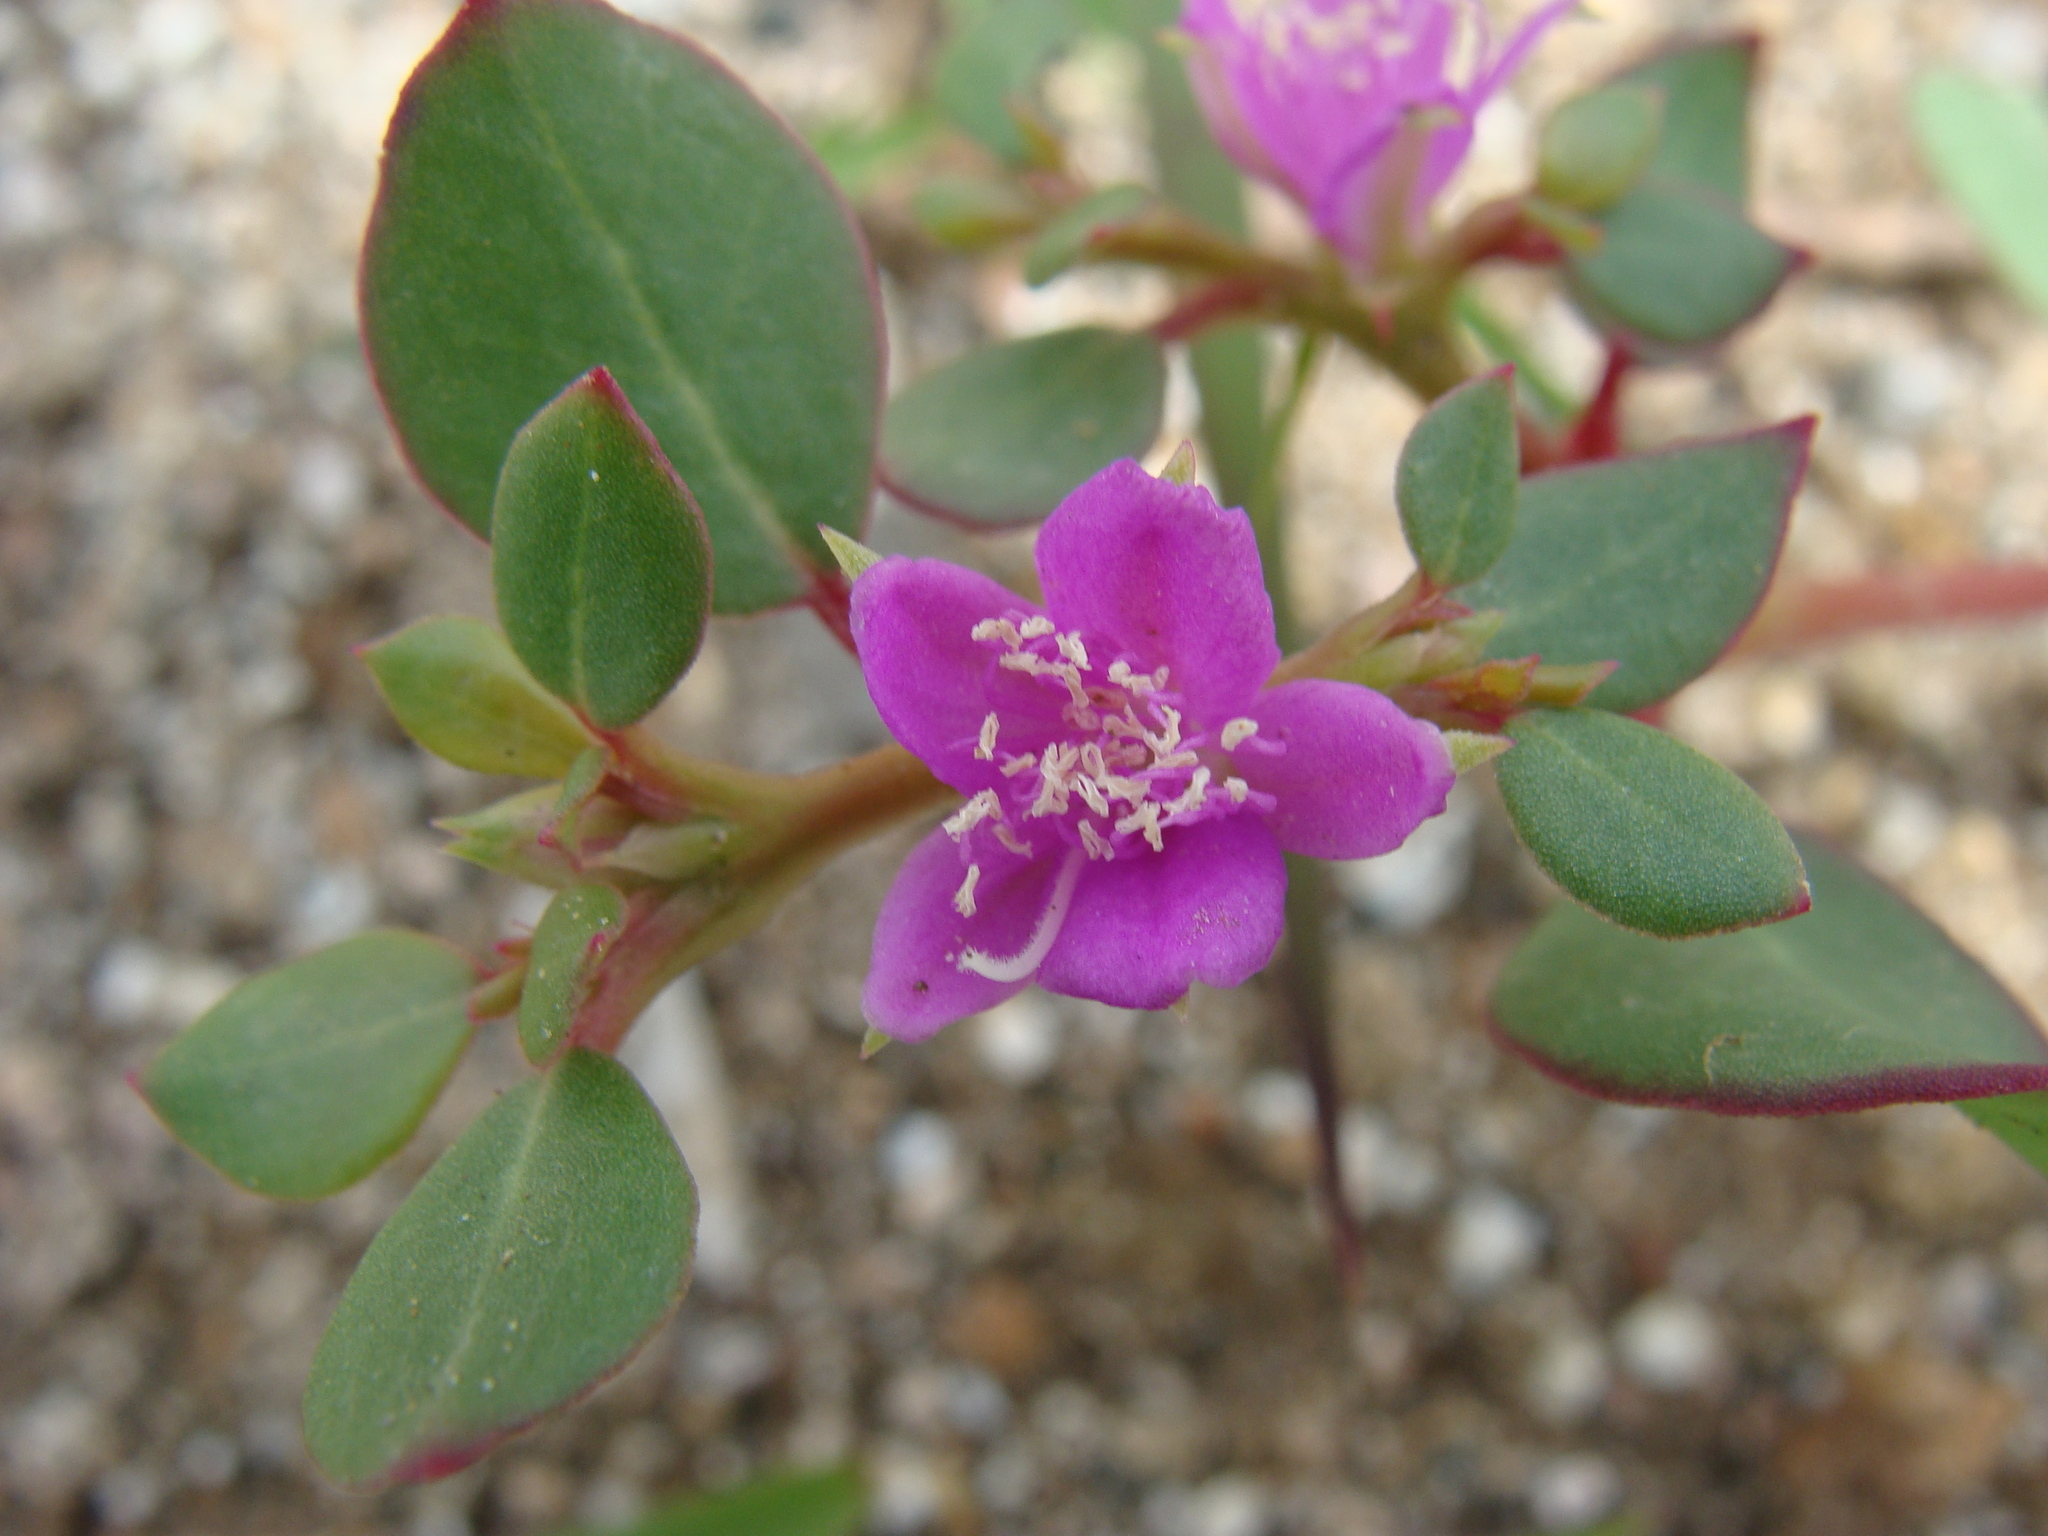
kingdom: Plantae
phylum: Tracheophyta
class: Magnoliopsida
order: Caryophyllales
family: Aizoaceae
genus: Trianthema
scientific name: Trianthema portulacastrum
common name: Desert horsepurslane
